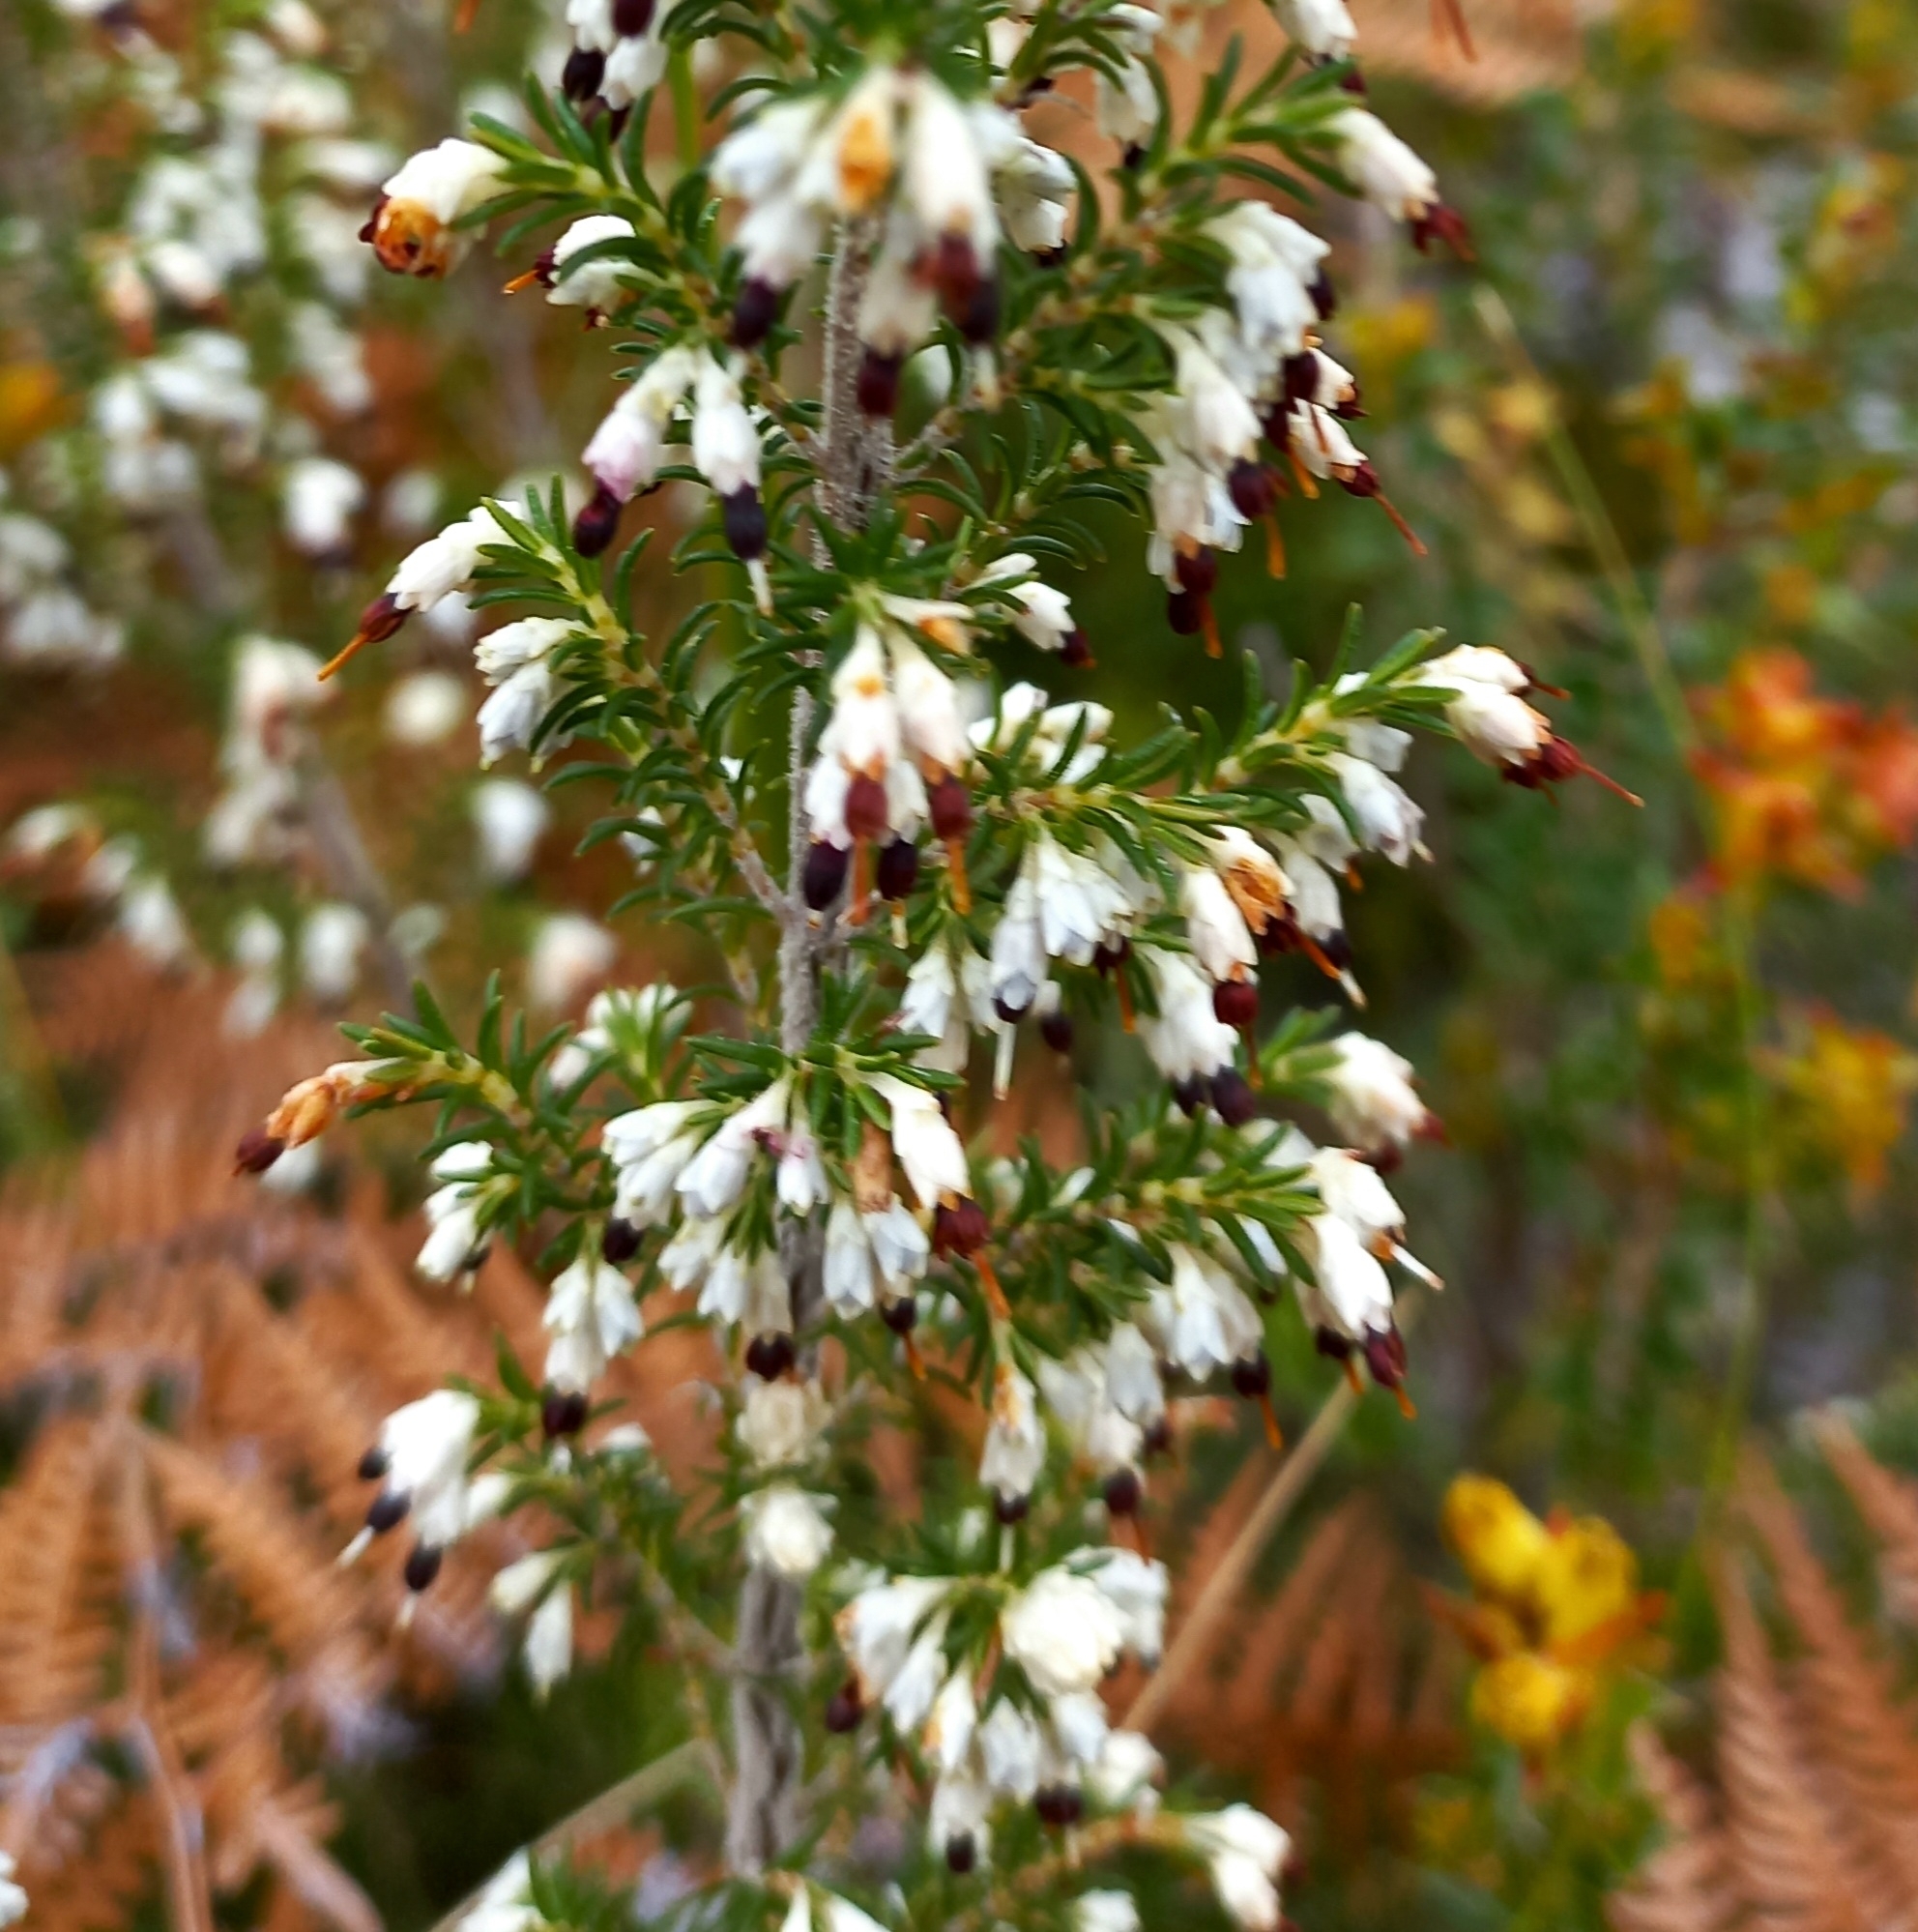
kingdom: Plantae
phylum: Tracheophyta
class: Magnoliopsida
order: Ericales
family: Ericaceae
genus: Erica
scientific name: Erica imbricata
